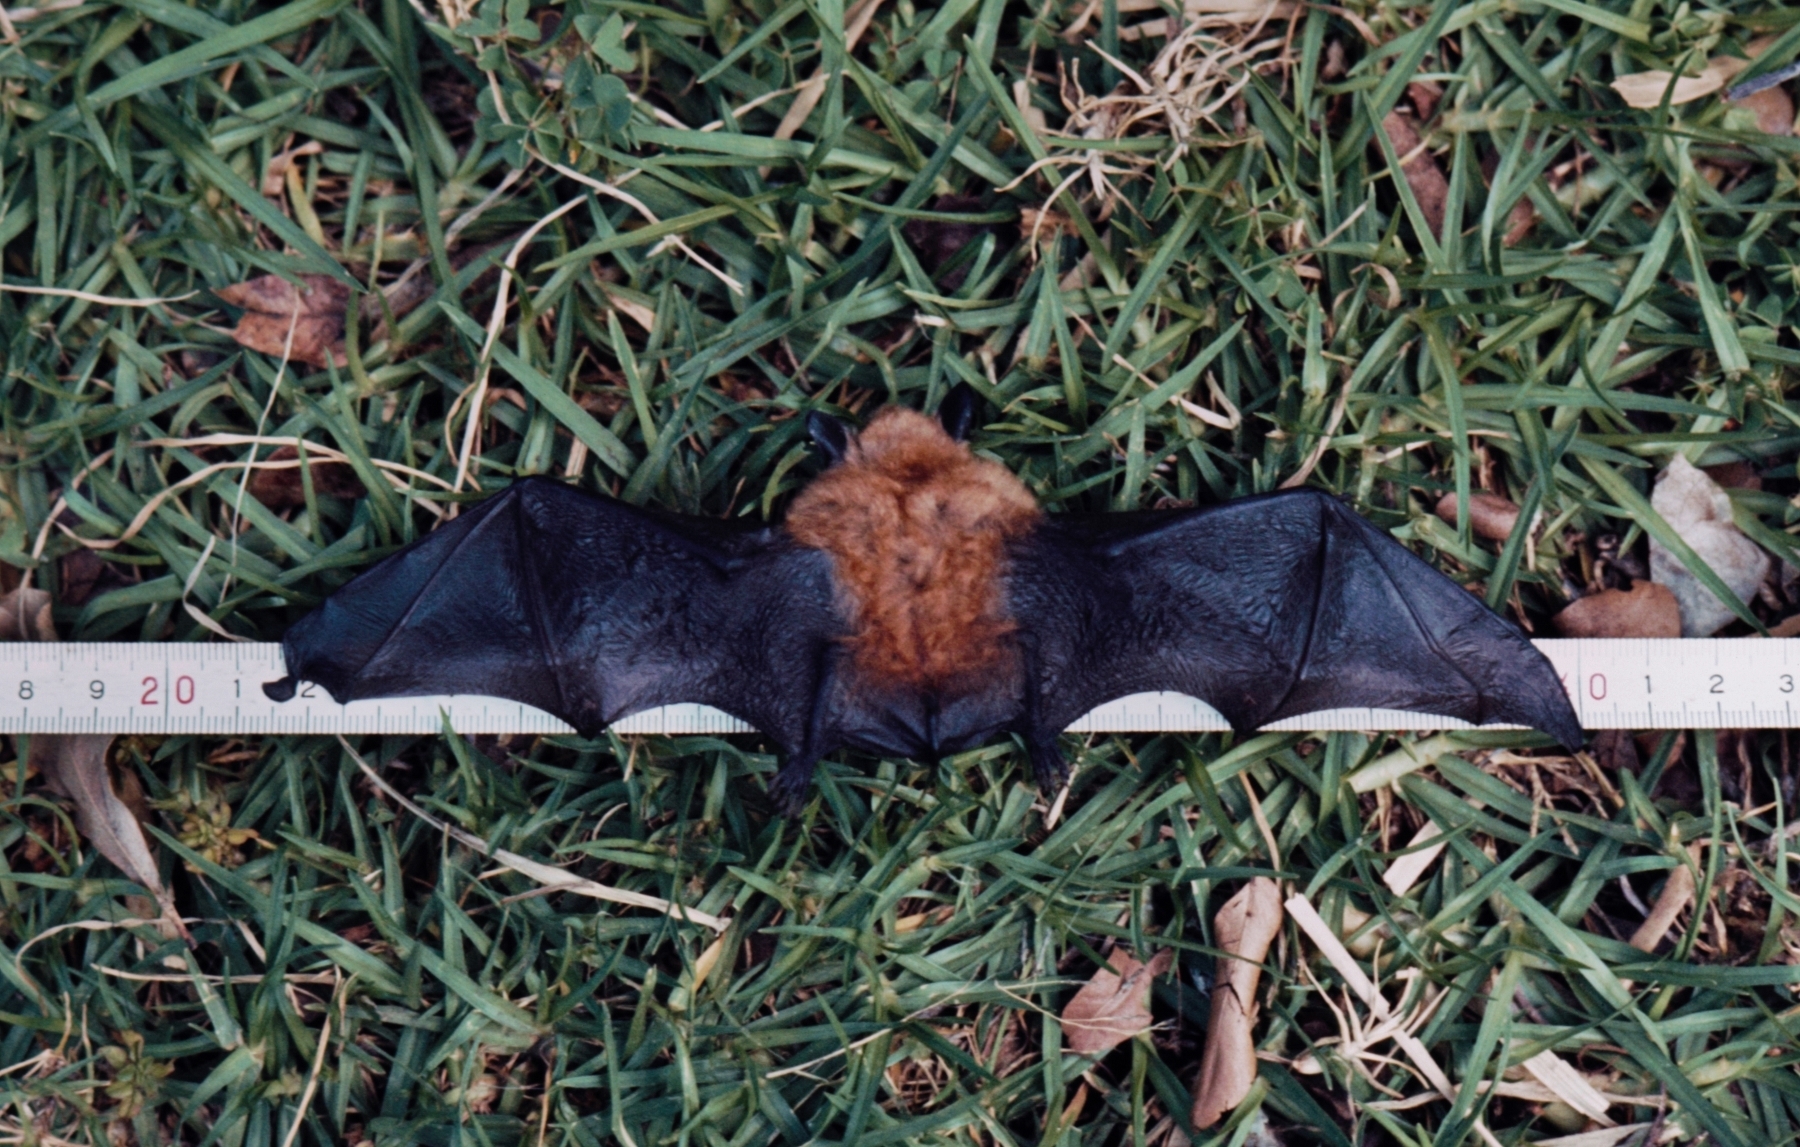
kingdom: Animalia
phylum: Chordata
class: Mammalia
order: Chiroptera
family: Vespertilionidae
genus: Myotis
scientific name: Myotis bocagii
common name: Rufous mouse-eared bat
